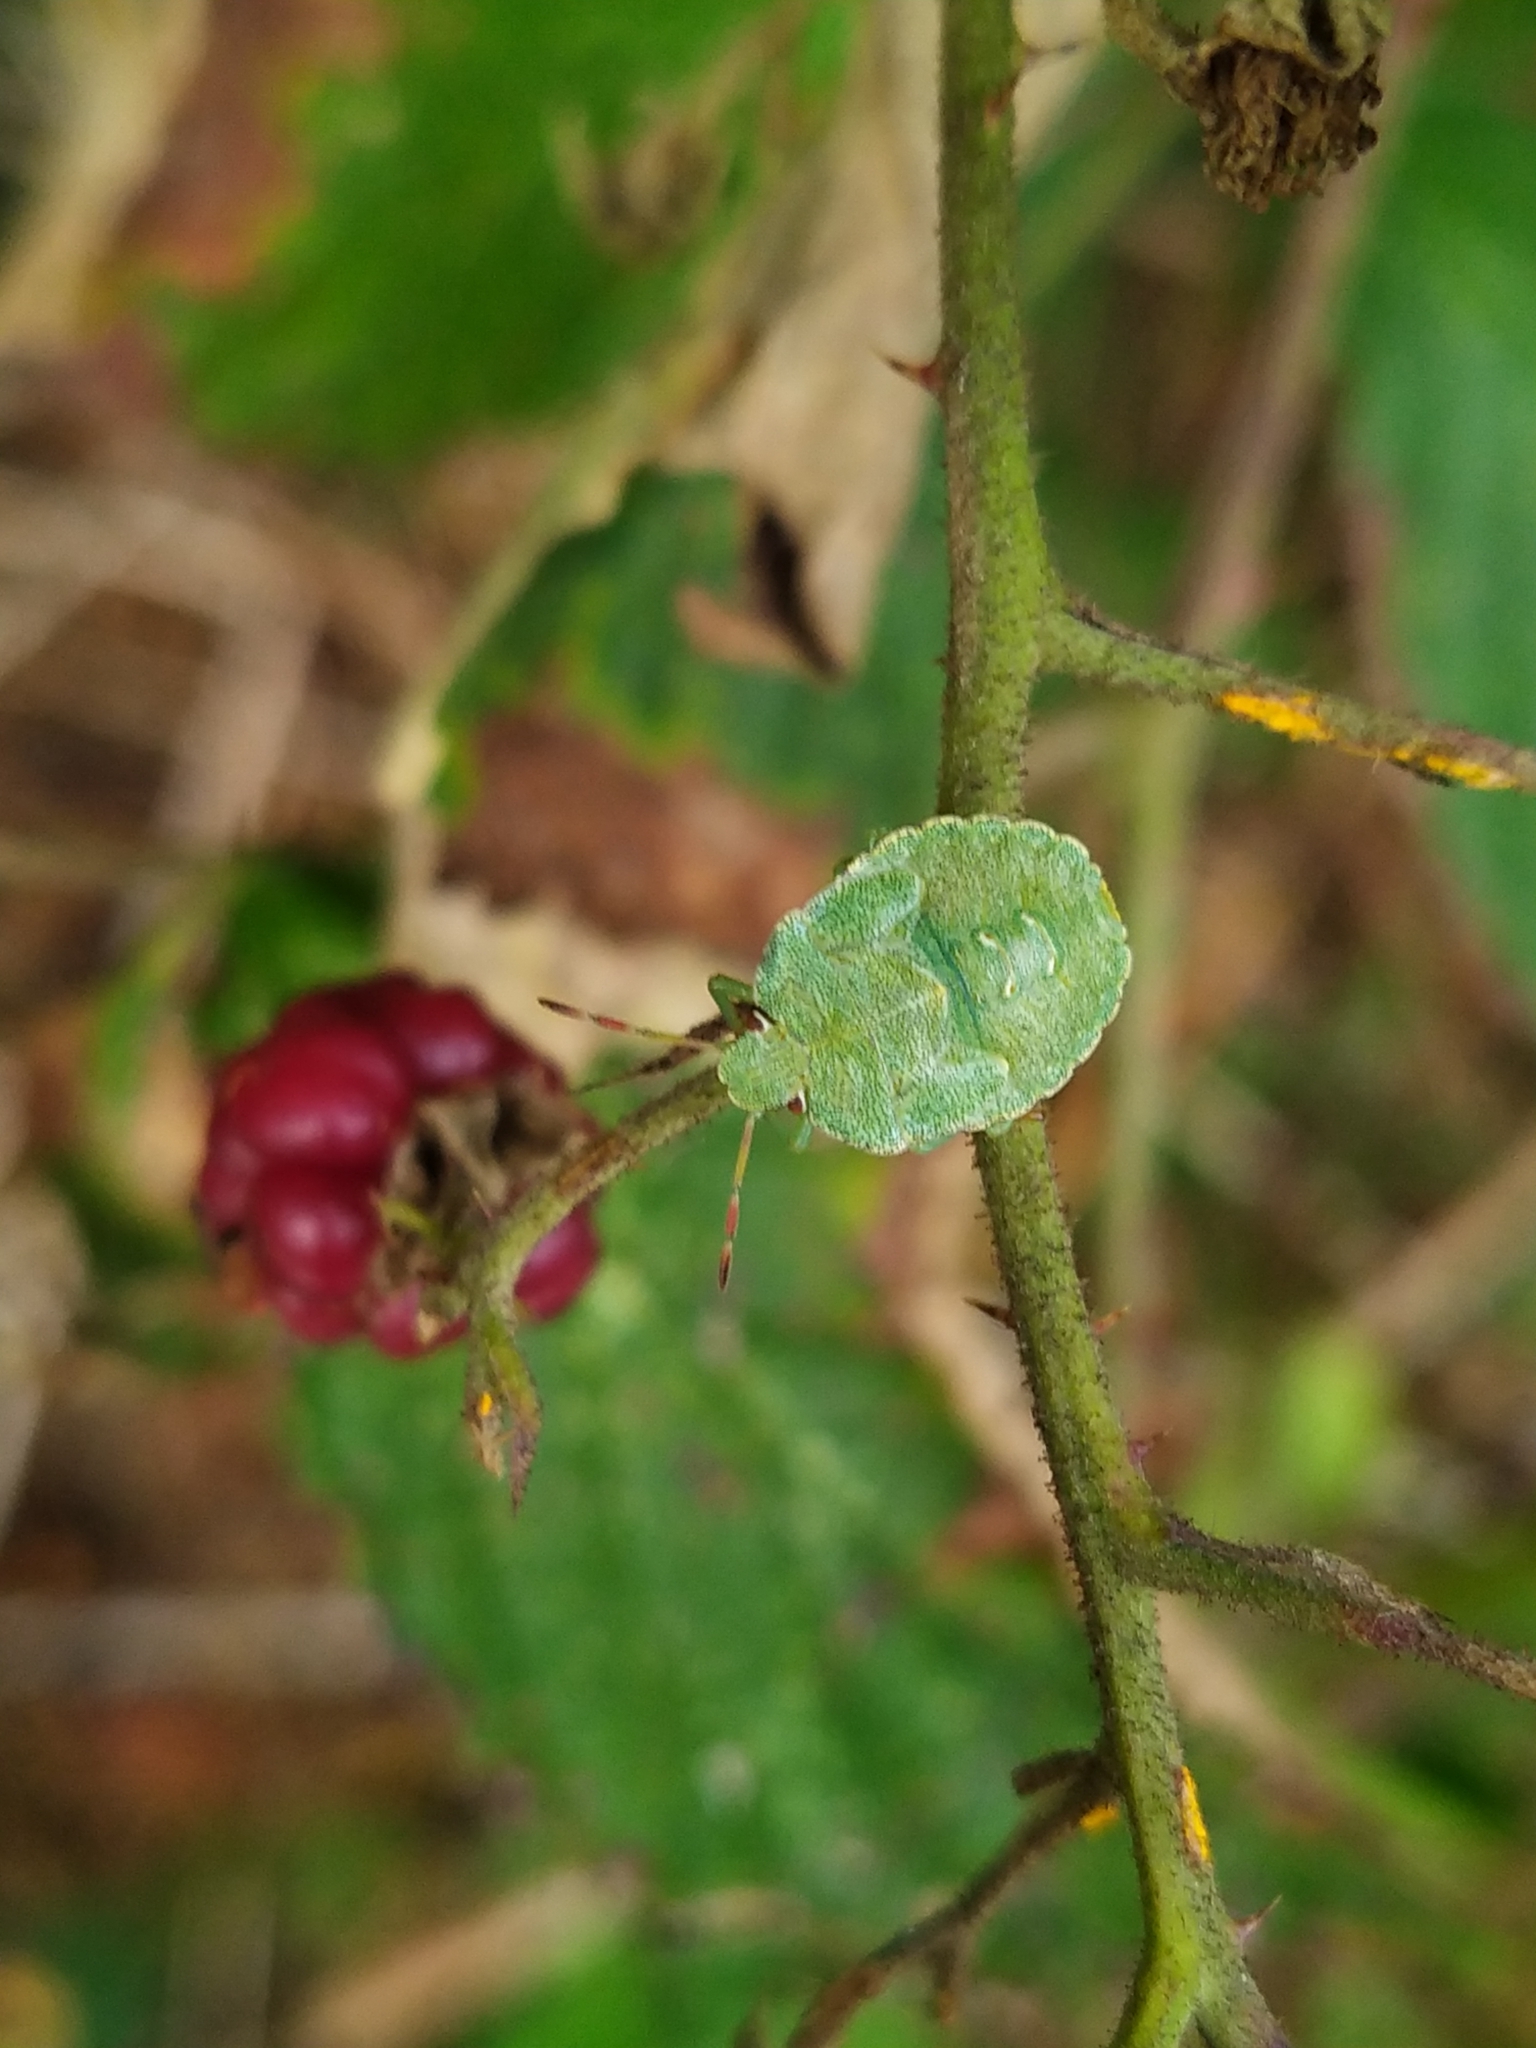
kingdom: Animalia
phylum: Arthropoda
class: Insecta
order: Hemiptera
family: Pentatomidae
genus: Palomena
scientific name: Palomena prasina
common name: Green shieldbug
